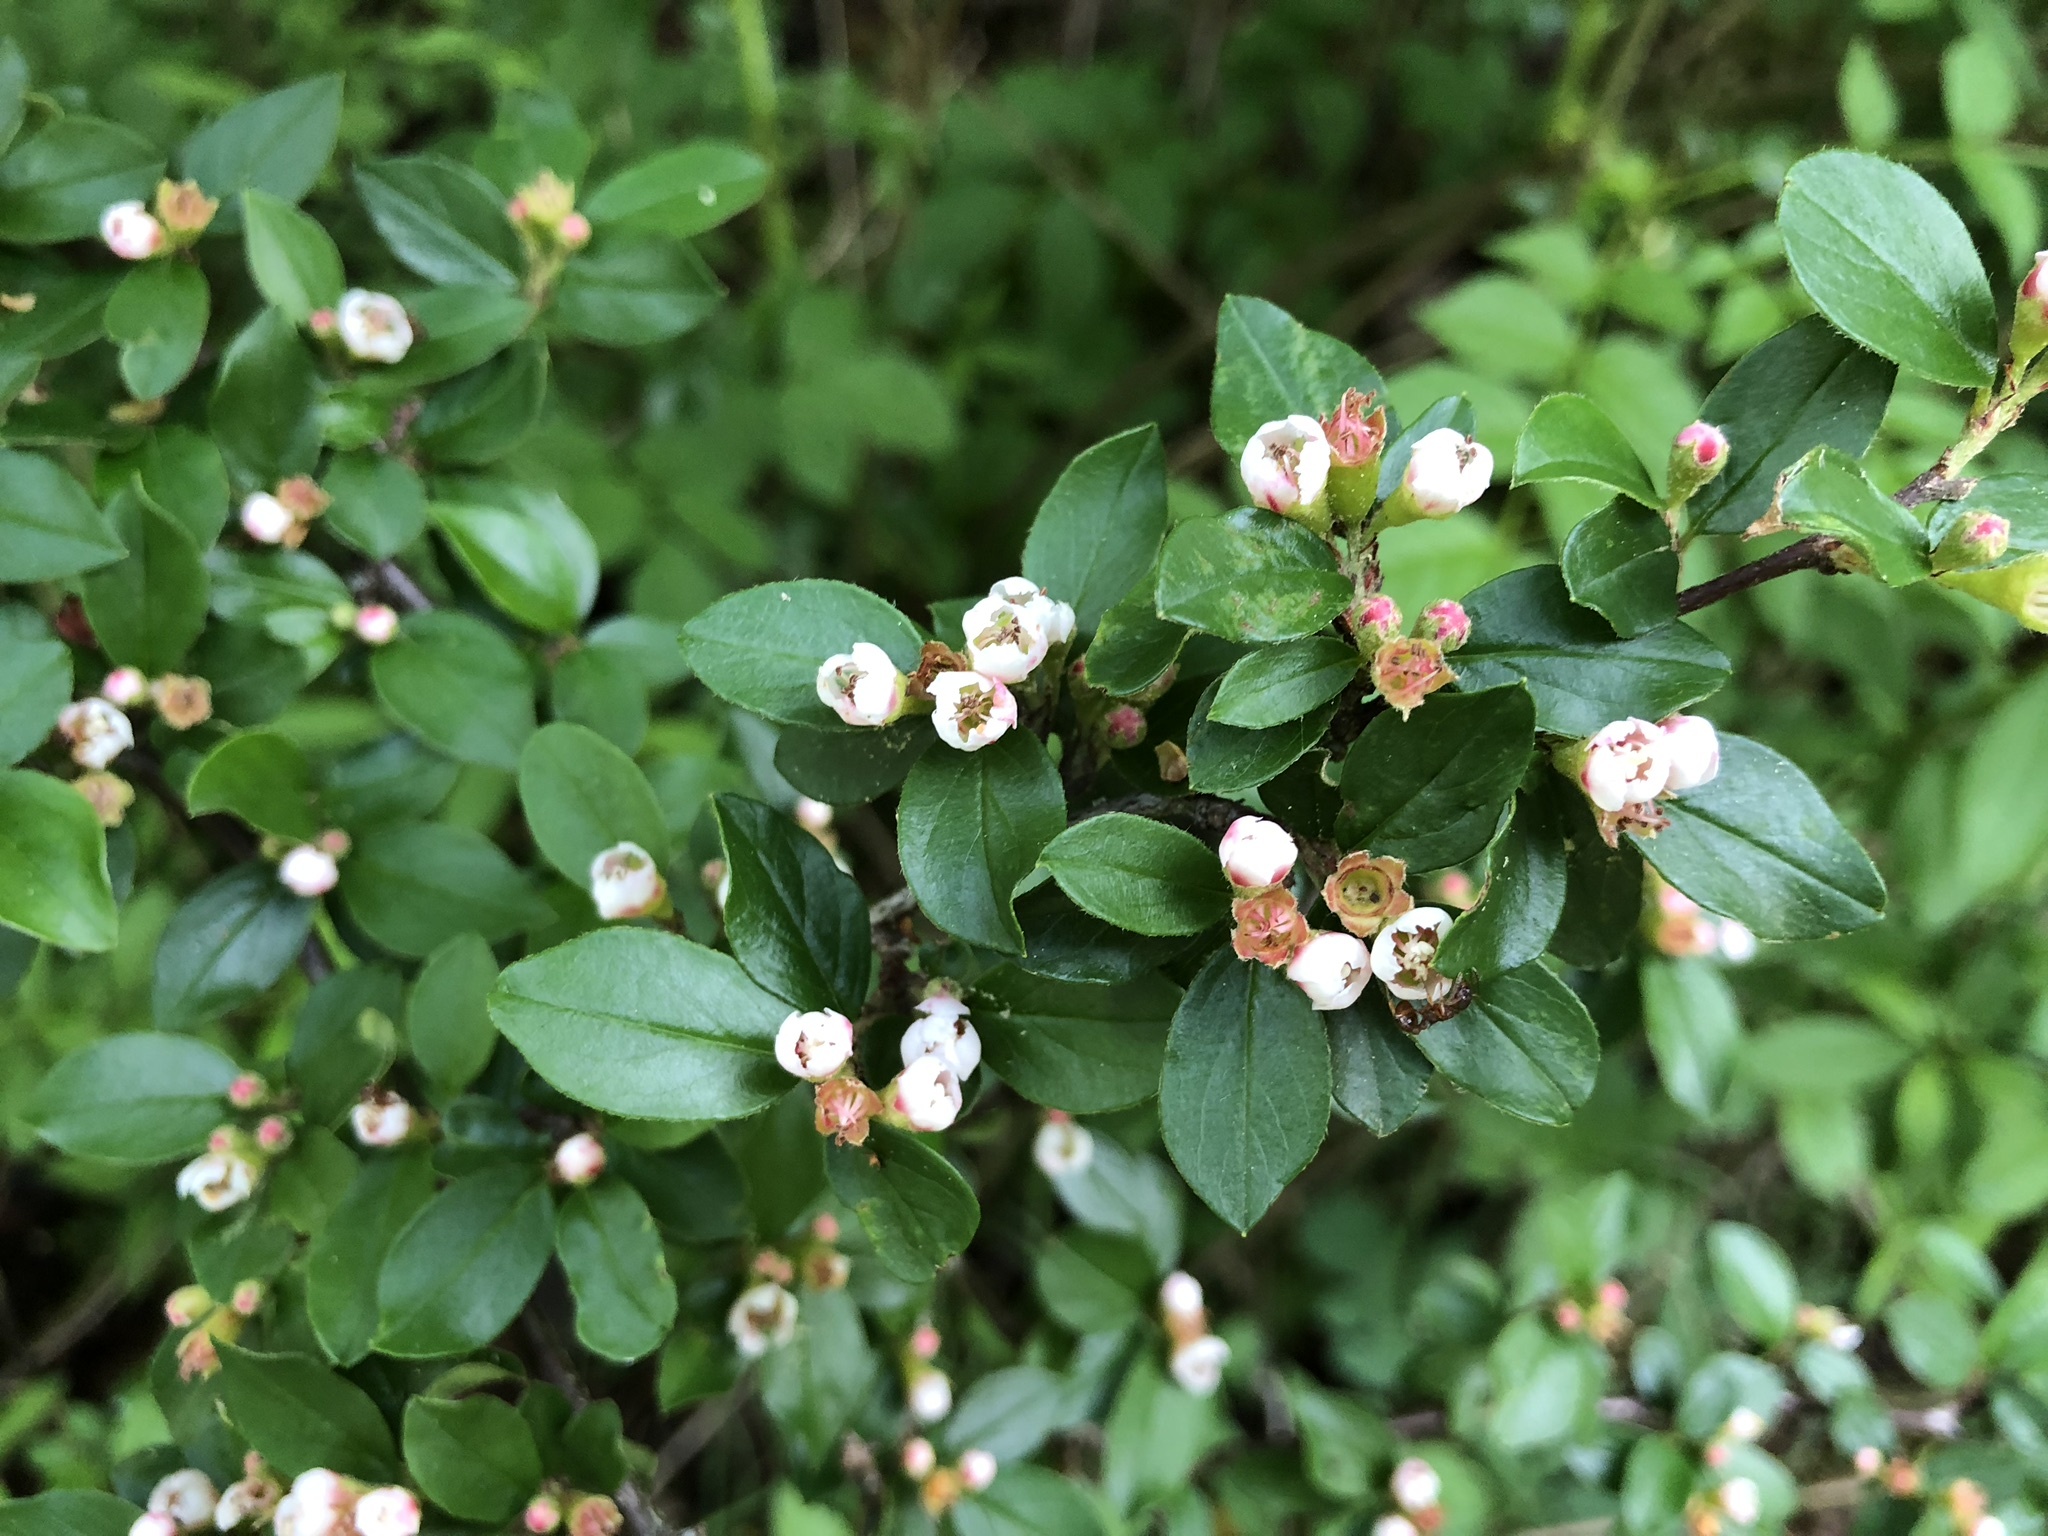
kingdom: Plantae
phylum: Tracheophyta
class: Magnoliopsida
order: Rosales
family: Rosaceae
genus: Cotoneaster
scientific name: Cotoneaster divaricatus
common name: Spreading cotoneaster
